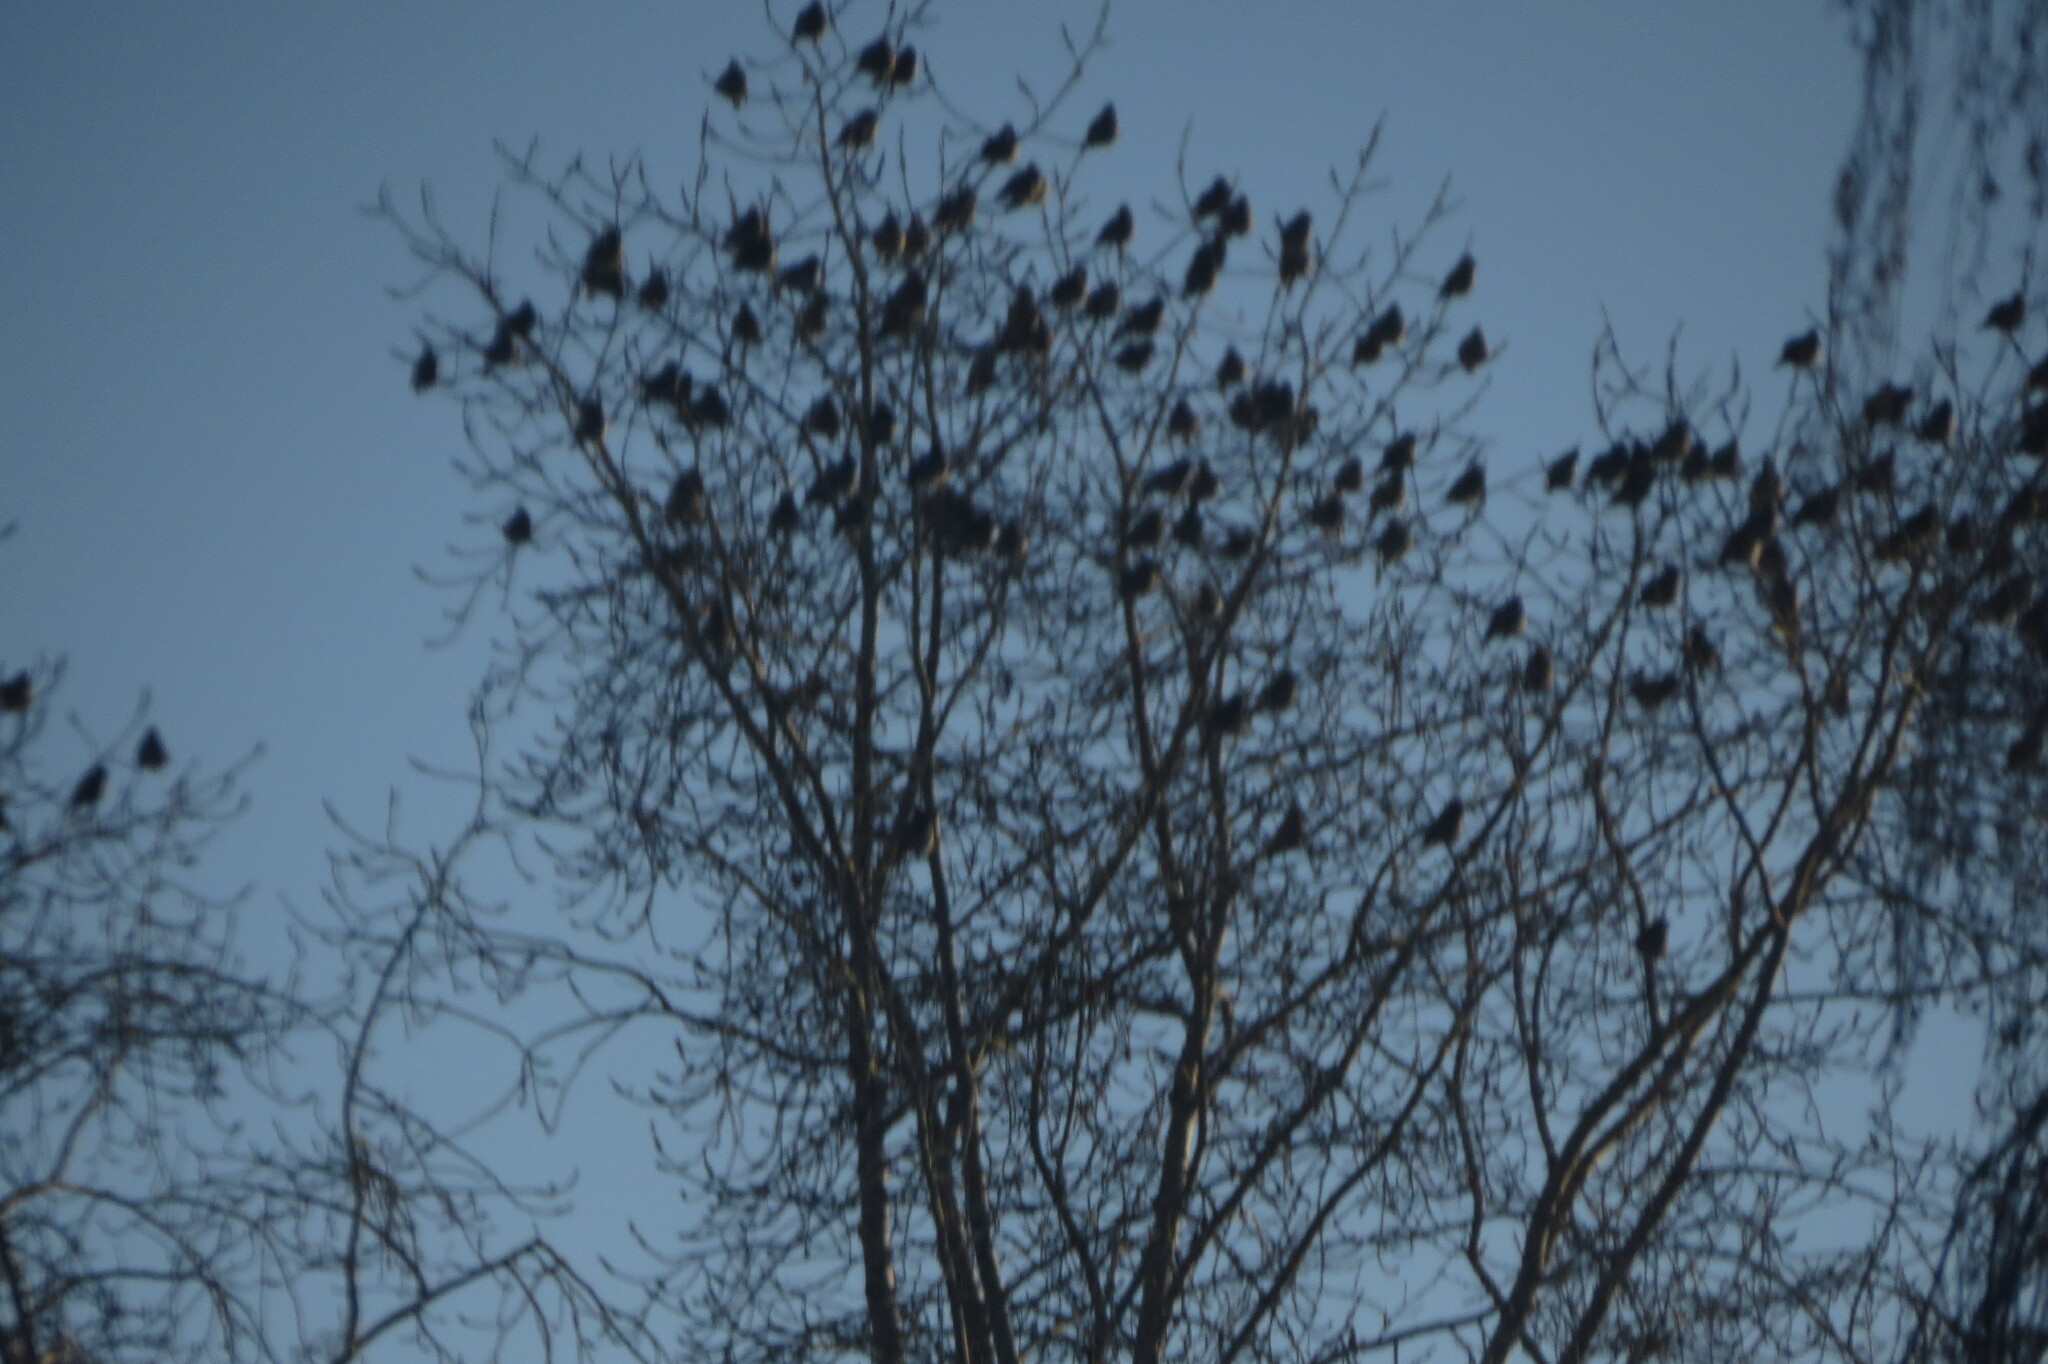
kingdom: Animalia
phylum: Chordata
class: Aves
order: Passeriformes
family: Bombycillidae
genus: Bombycilla
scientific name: Bombycilla garrulus
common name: Bohemian waxwing
